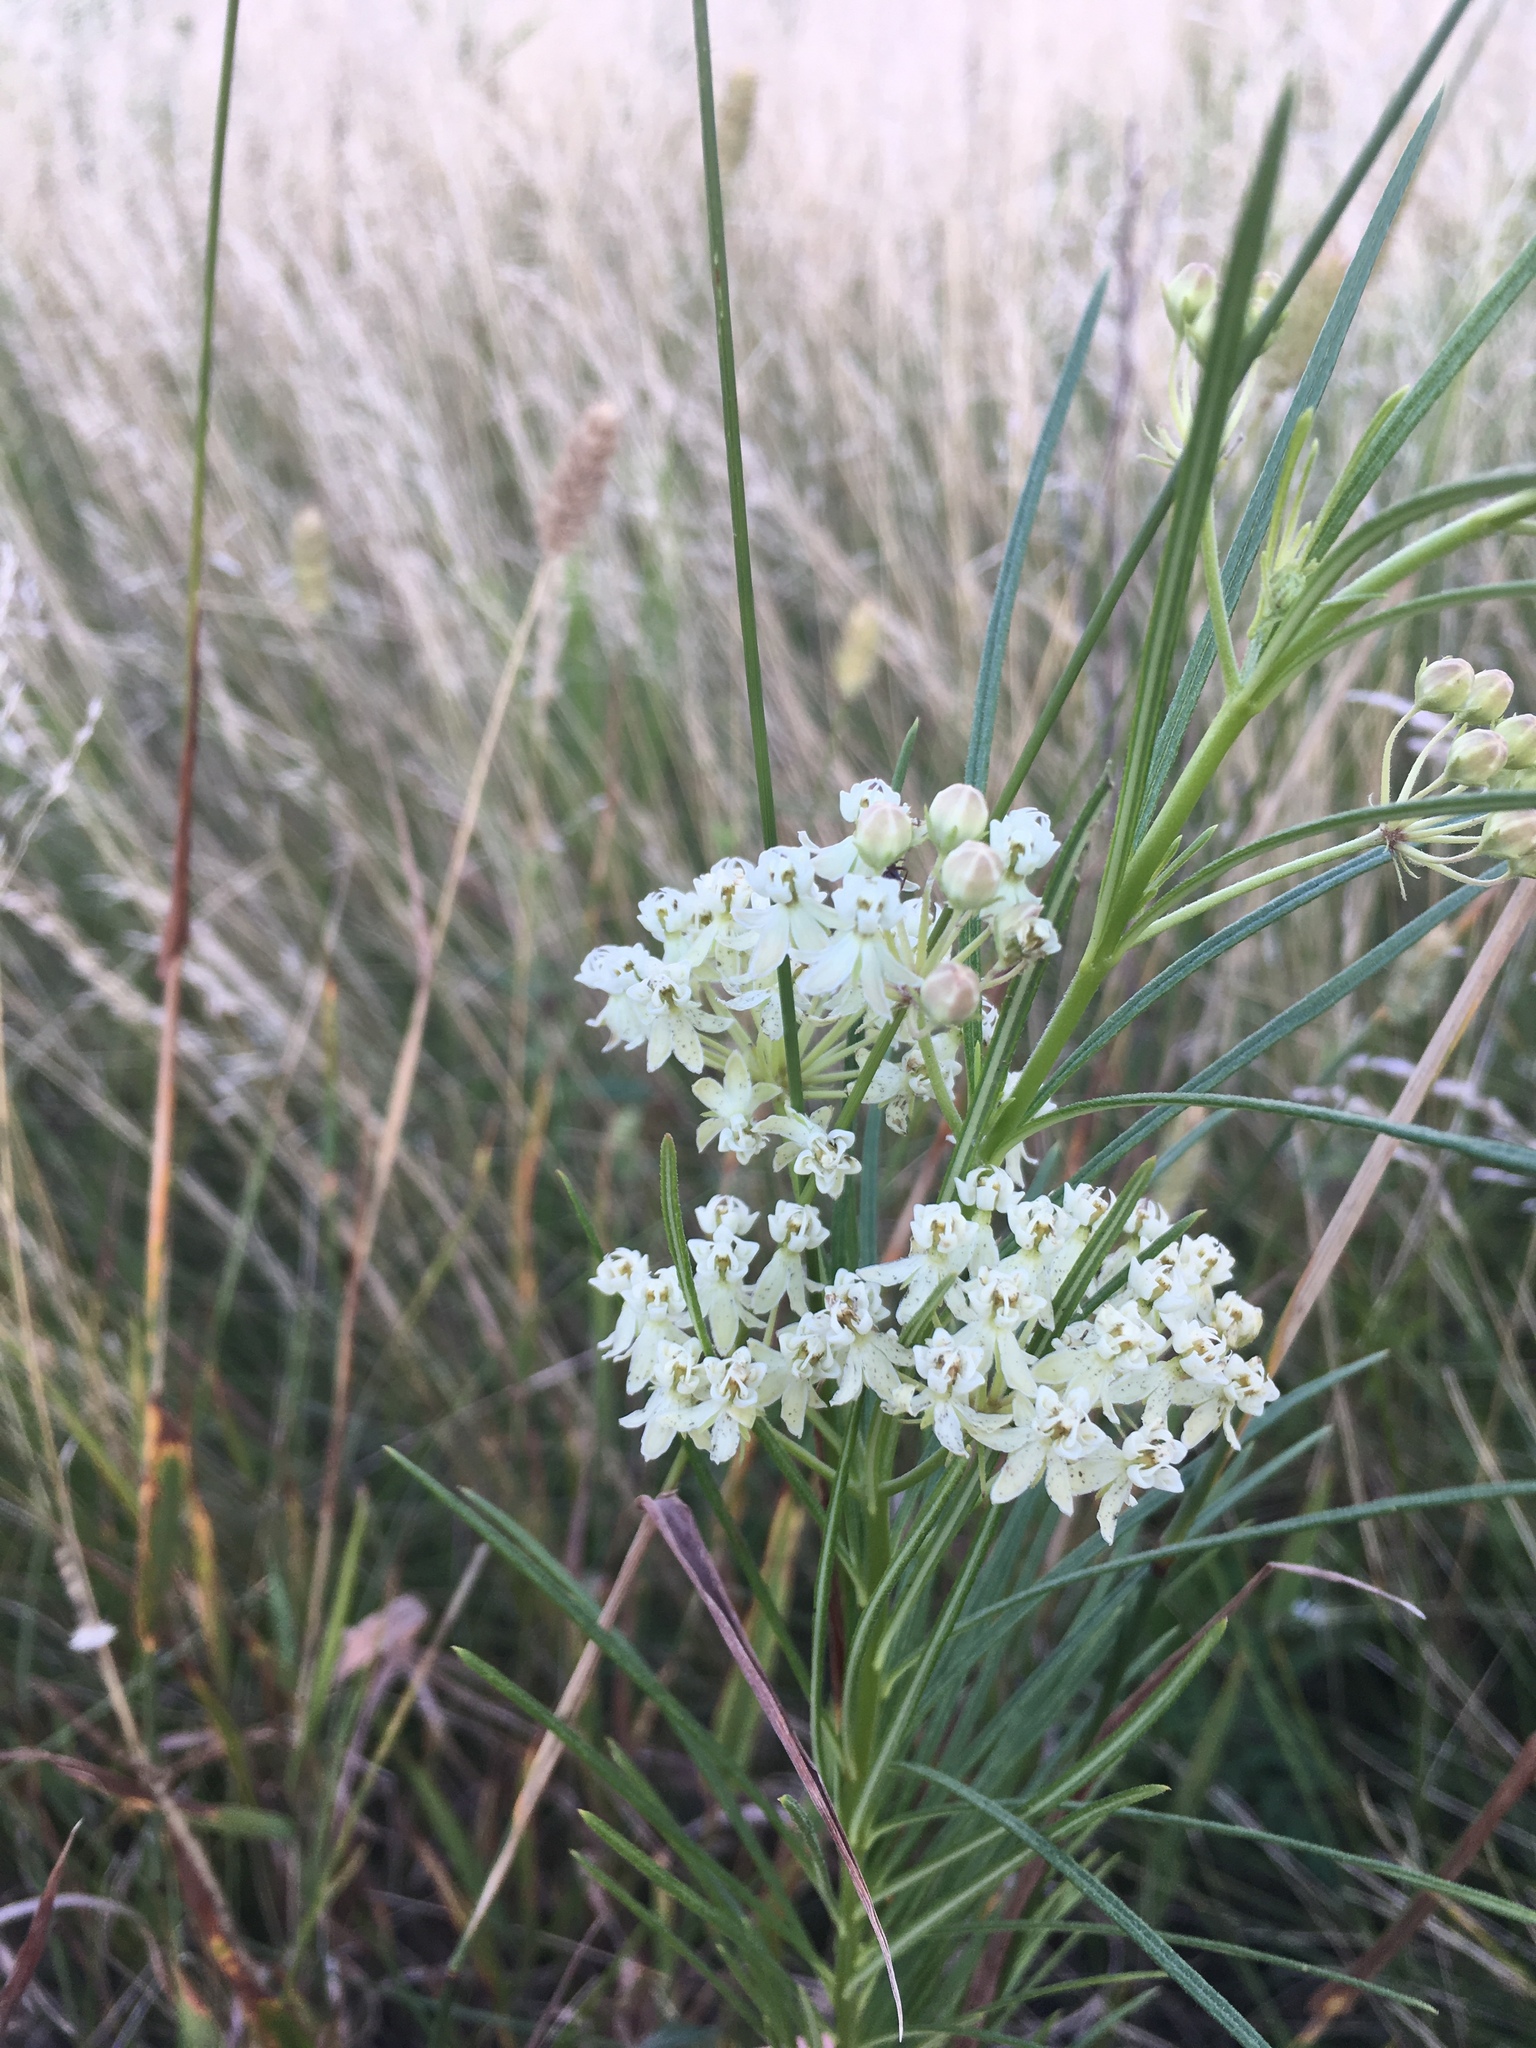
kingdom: Plantae
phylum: Tracheophyta
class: Magnoliopsida
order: Gentianales
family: Apocynaceae
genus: Asclepias
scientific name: Asclepias verticillata
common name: Eastern whorled milkweed
